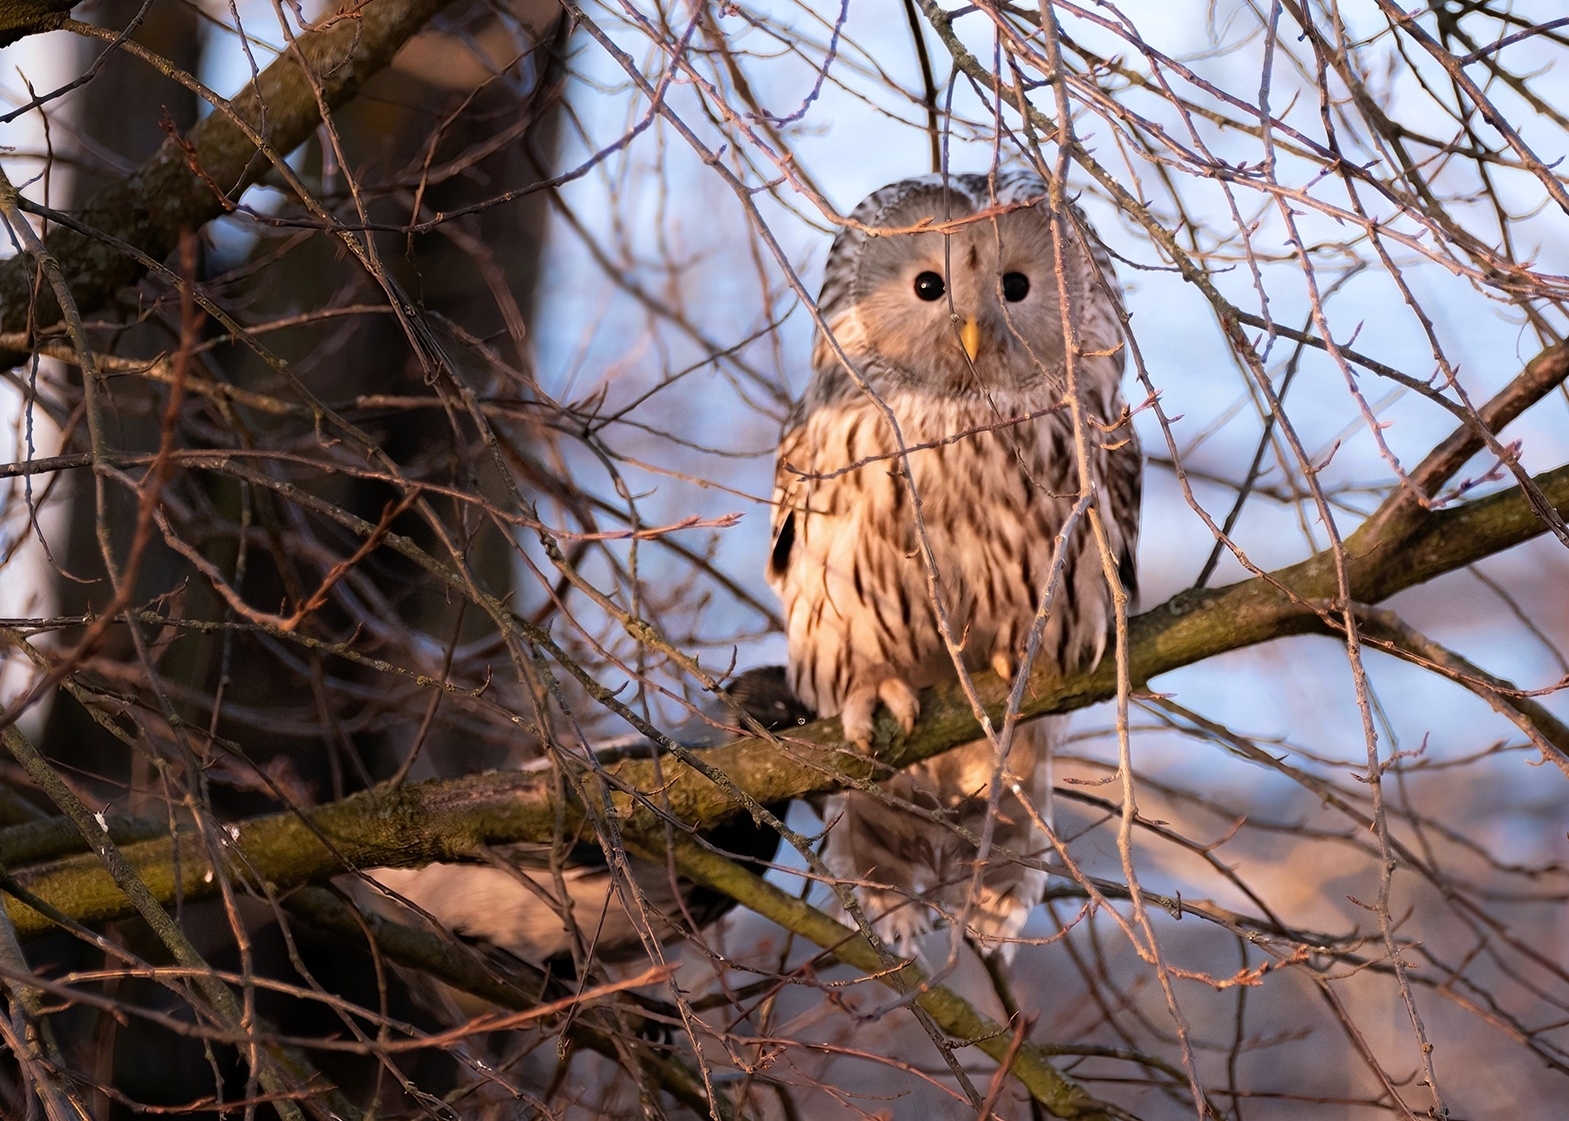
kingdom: Animalia
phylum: Chordata
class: Aves
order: Strigiformes
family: Strigidae
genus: Strix
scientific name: Strix uralensis
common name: Ural owl
